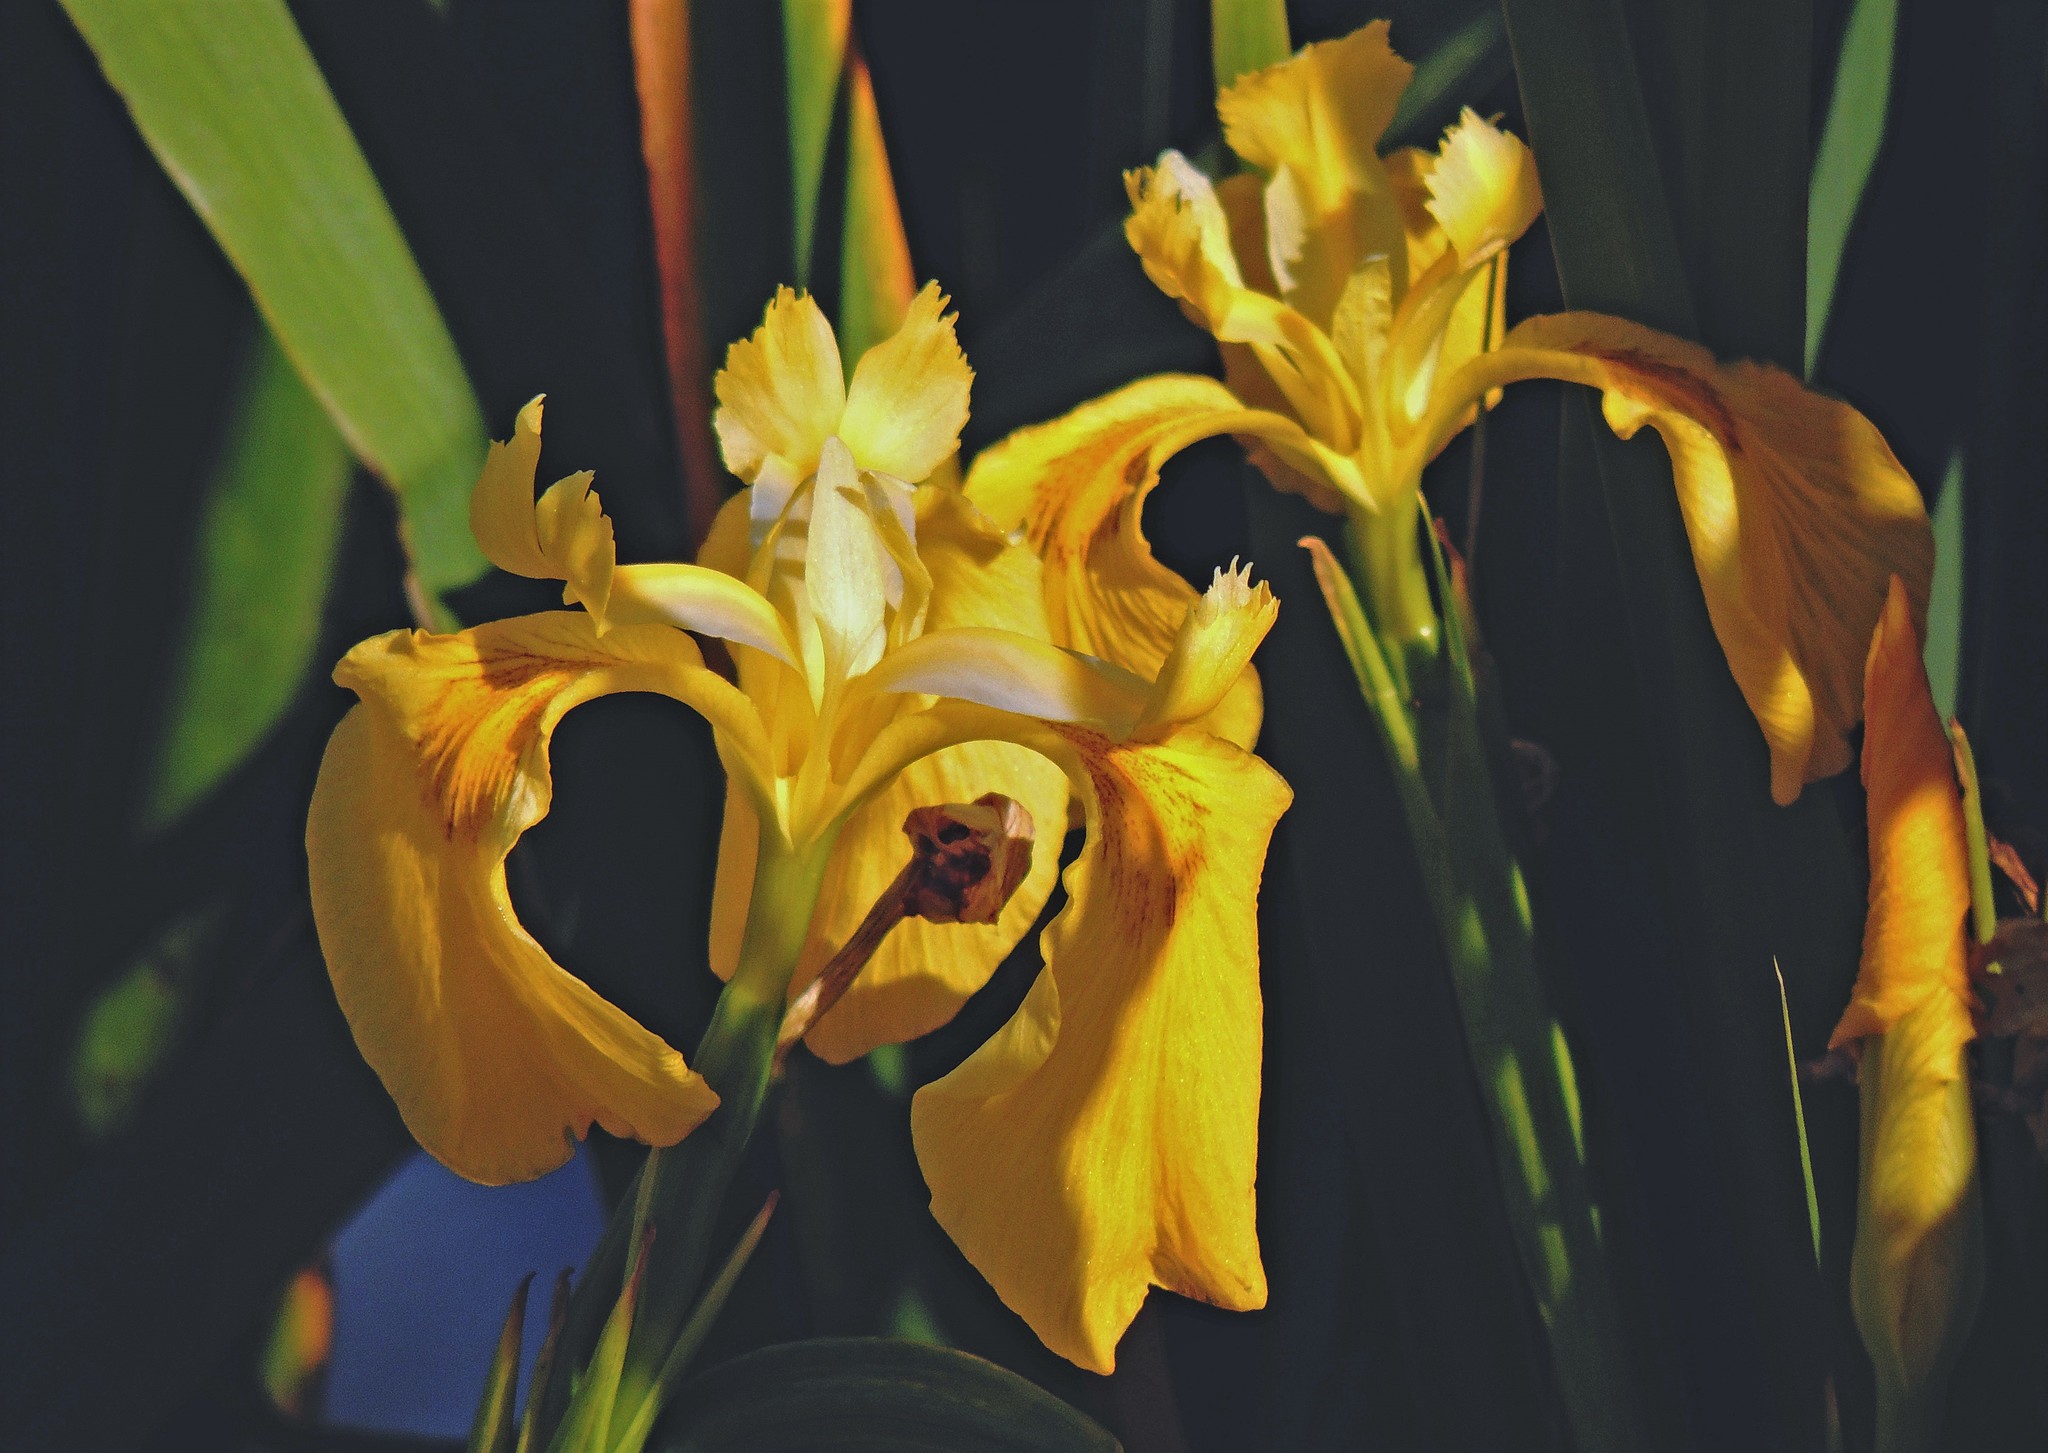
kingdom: Plantae
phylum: Tracheophyta
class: Liliopsida
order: Asparagales
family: Iridaceae
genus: Iris
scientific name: Iris pseudacorus
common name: Yellow flag
